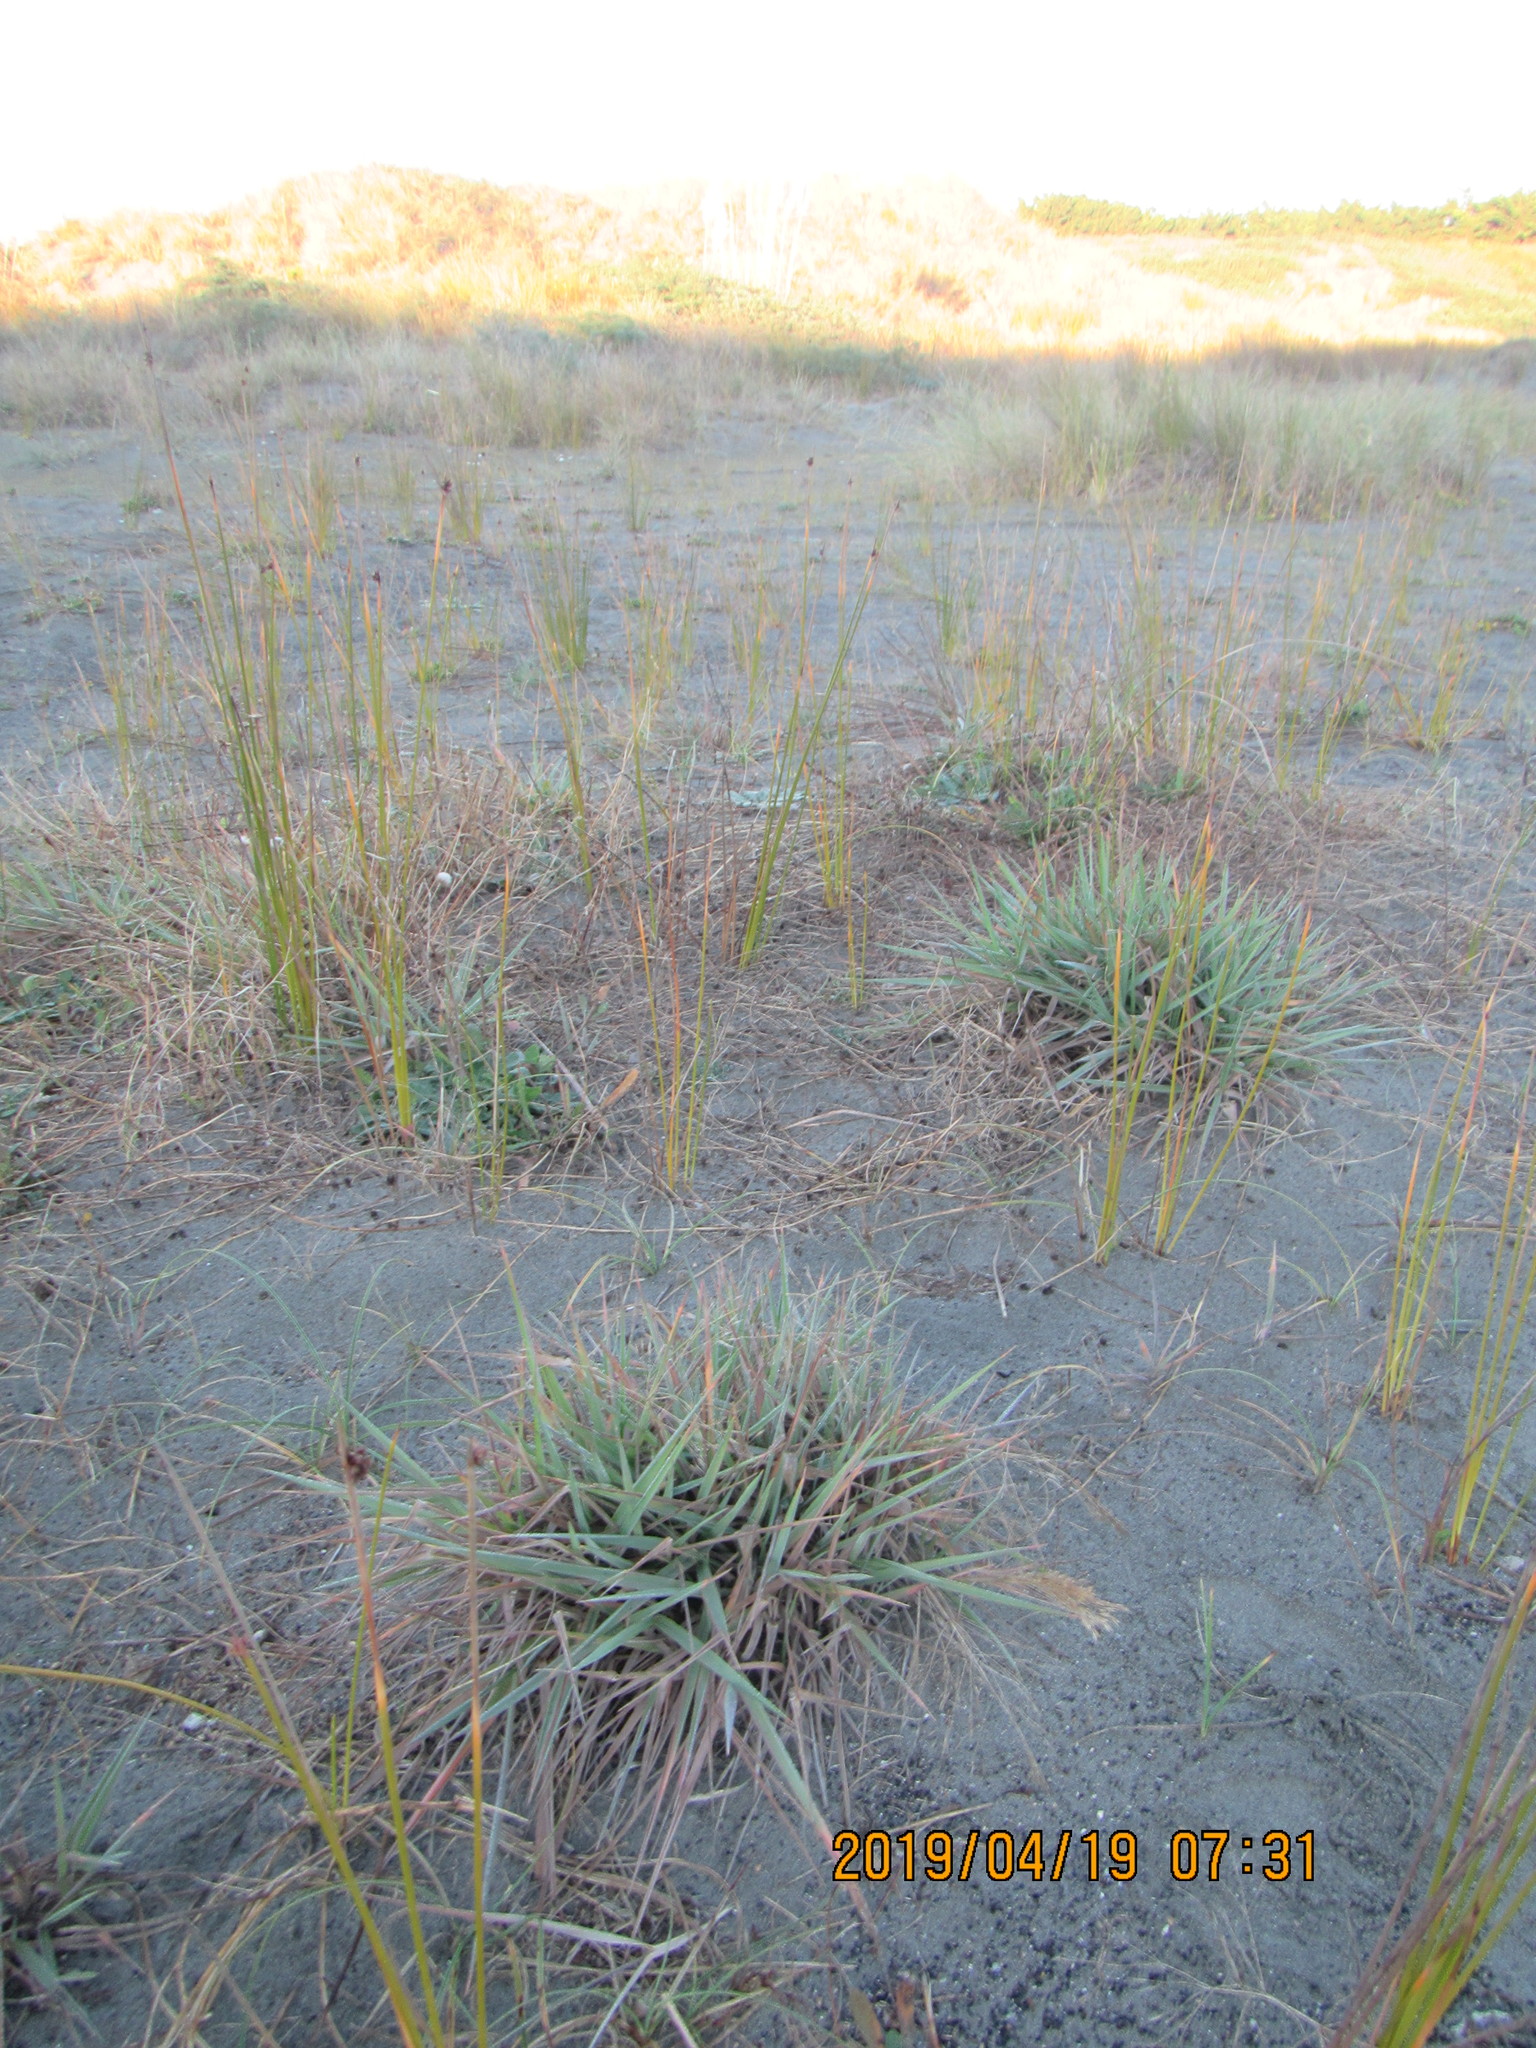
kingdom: Plantae
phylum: Tracheophyta
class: Liliopsida
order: Poales
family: Poaceae
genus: Lachnagrostis
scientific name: Lachnagrostis billardierei
